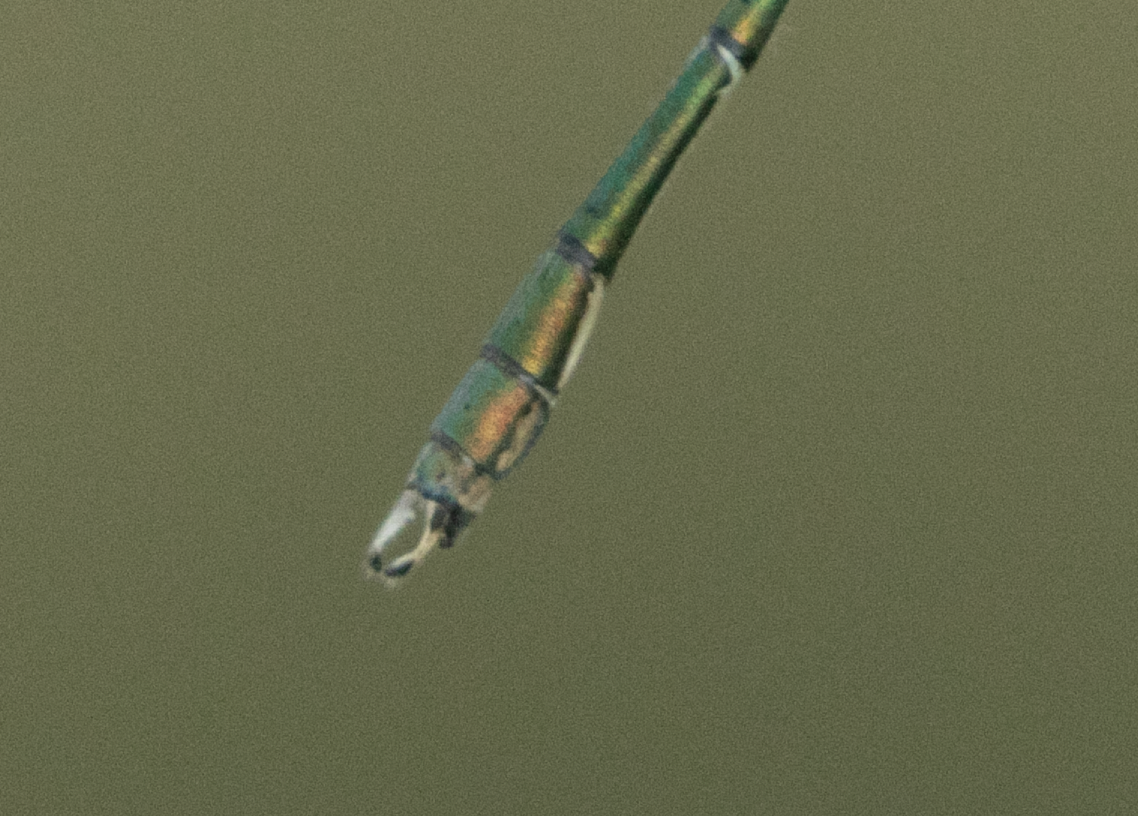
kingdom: Animalia
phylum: Arthropoda
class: Insecta
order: Odonata
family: Lestidae
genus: Chalcolestes
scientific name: Chalcolestes viridis
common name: Green emerald damselfly
